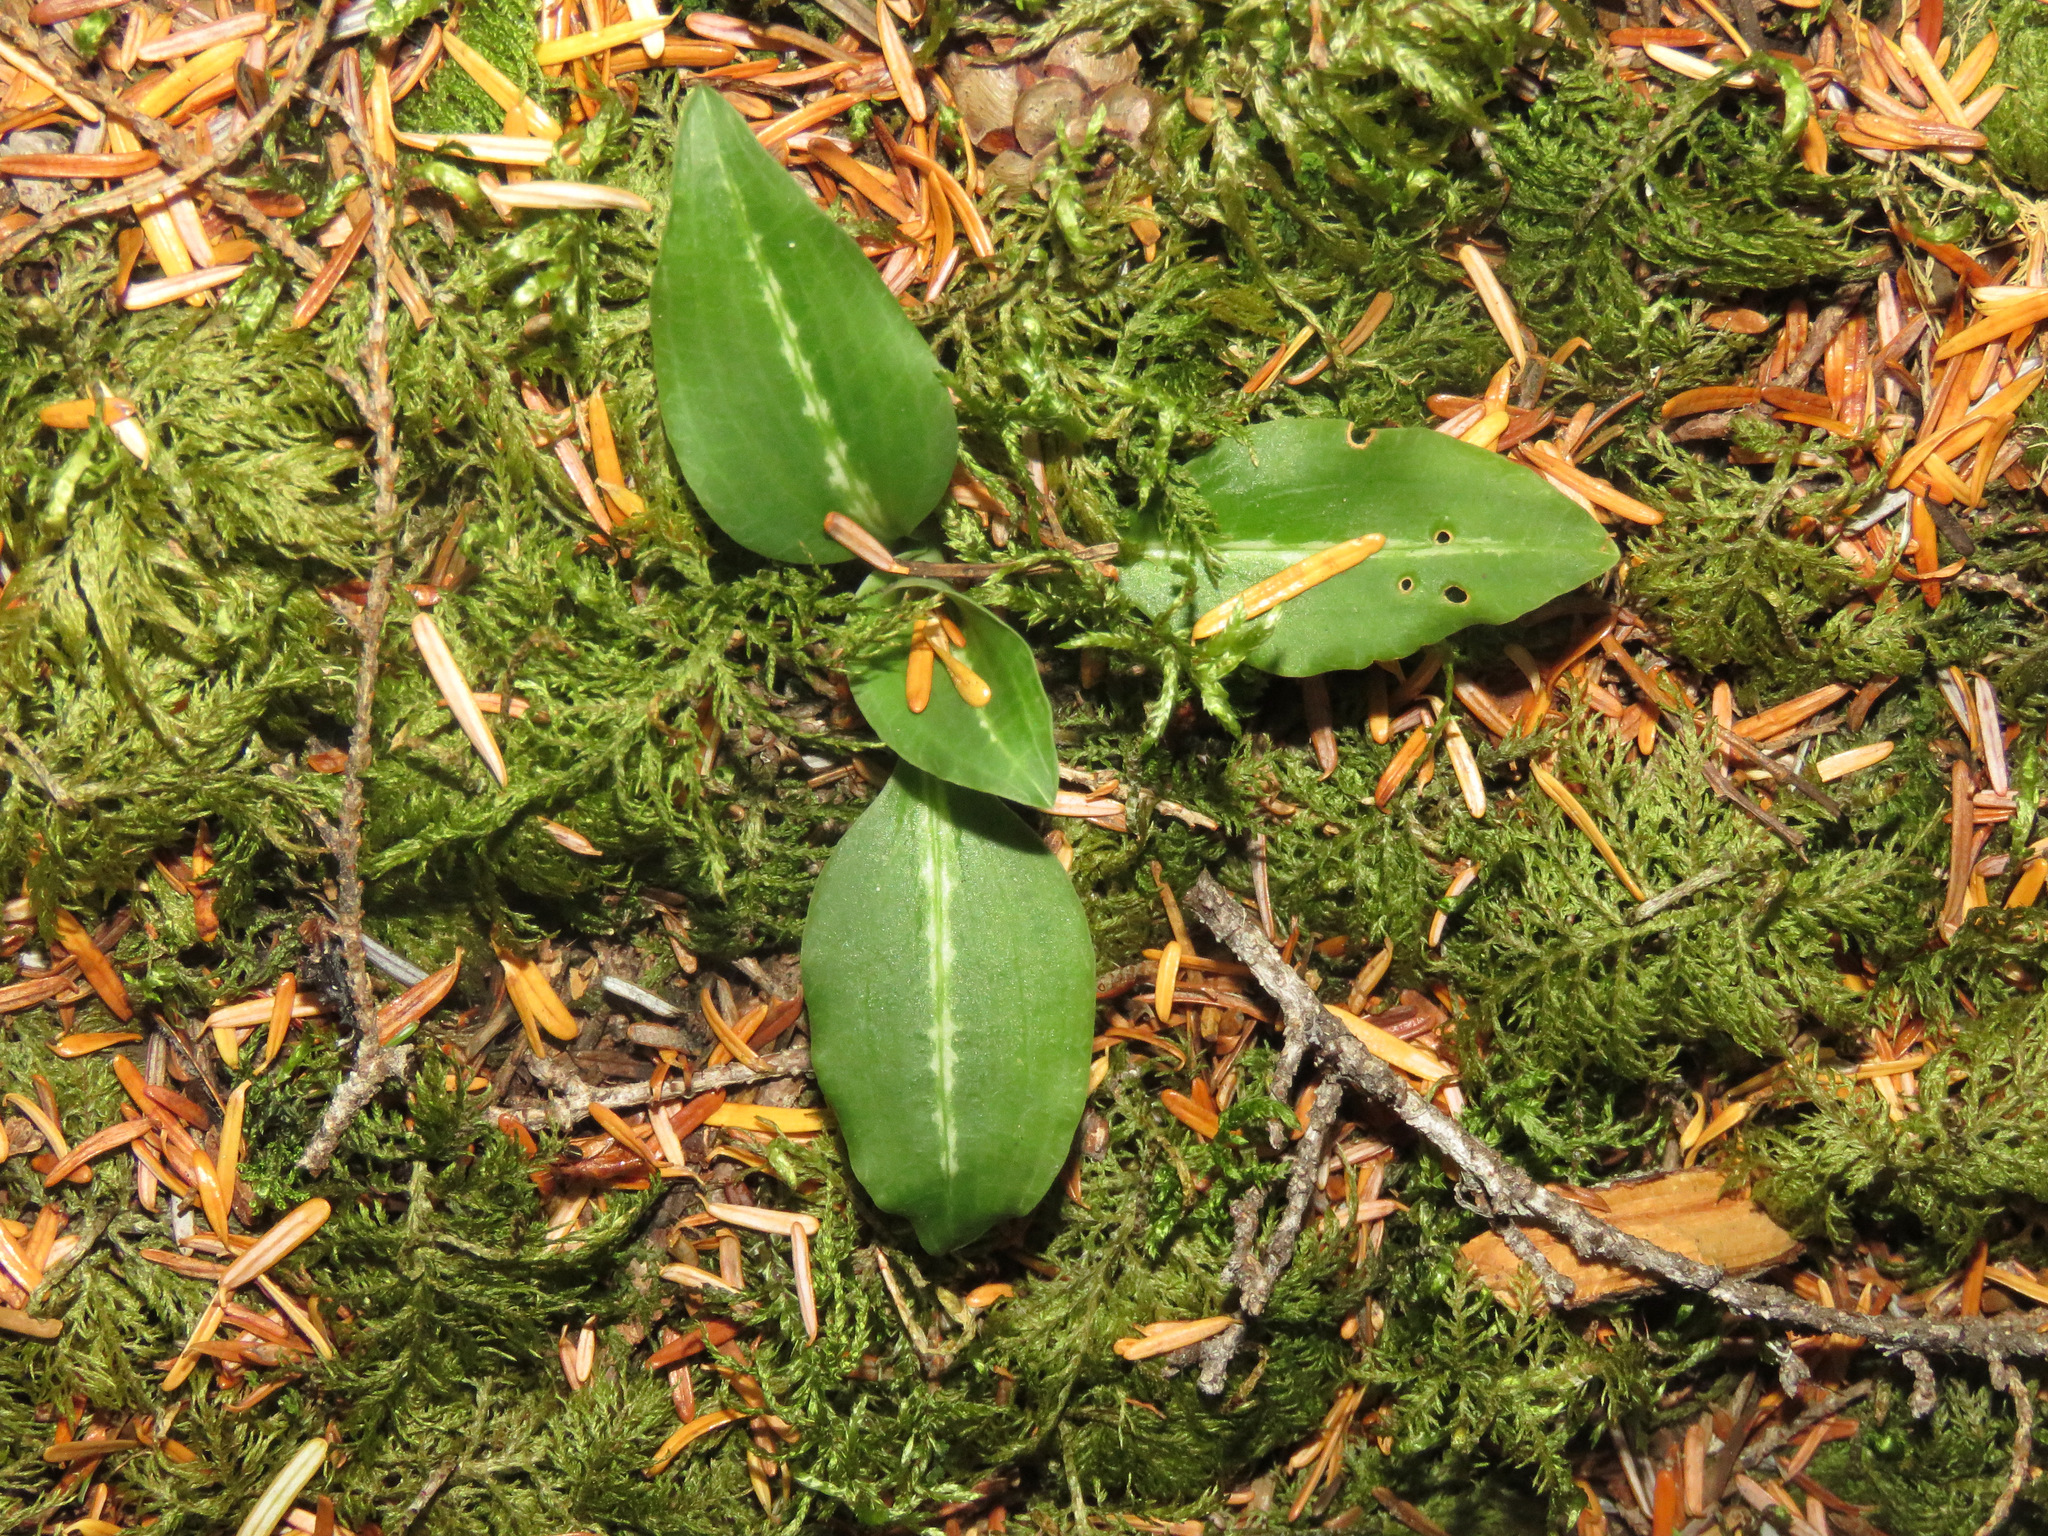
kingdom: Plantae
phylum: Tracheophyta
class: Liliopsida
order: Asparagales
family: Orchidaceae
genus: Goodyera
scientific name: Goodyera oblongifolia
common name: Giant rattlesnake-plantain
